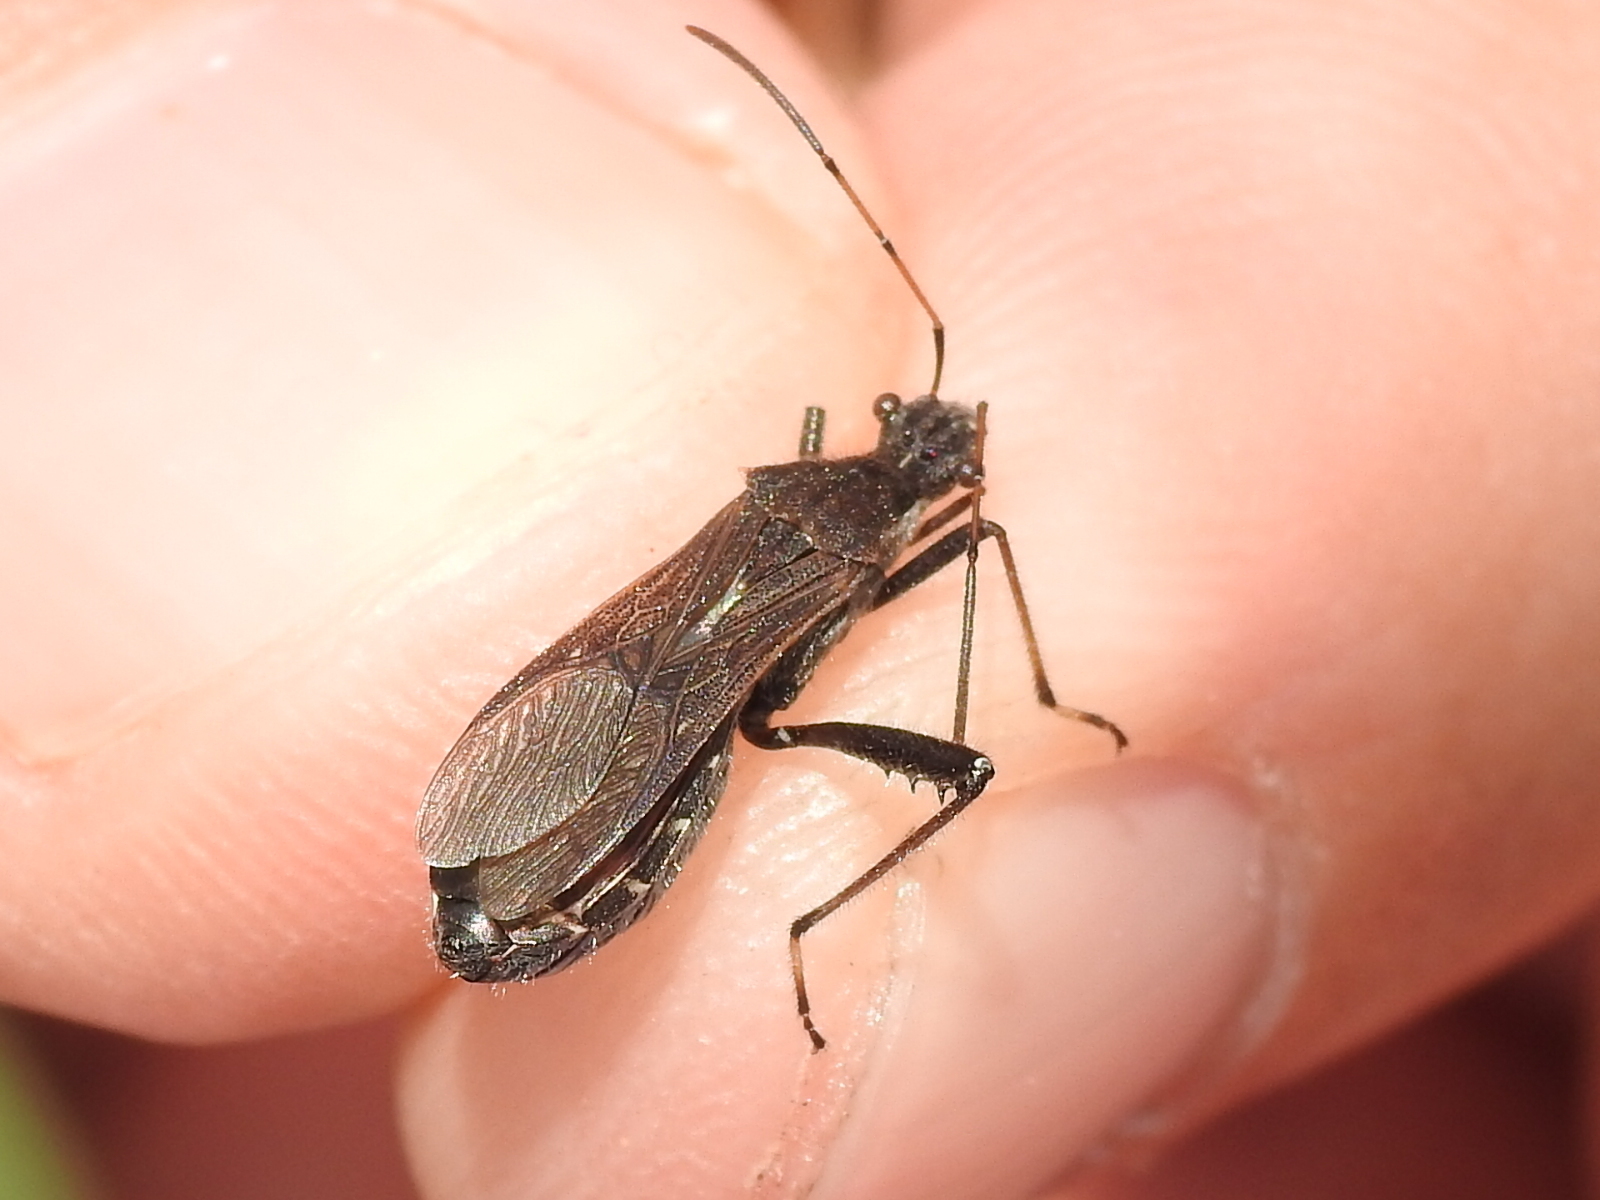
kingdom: Animalia
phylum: Arthropoda
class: Insecta
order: Hemiptera
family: Alydidae
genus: Alydus
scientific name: Alydus pilosulus
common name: Broad-headed bug
